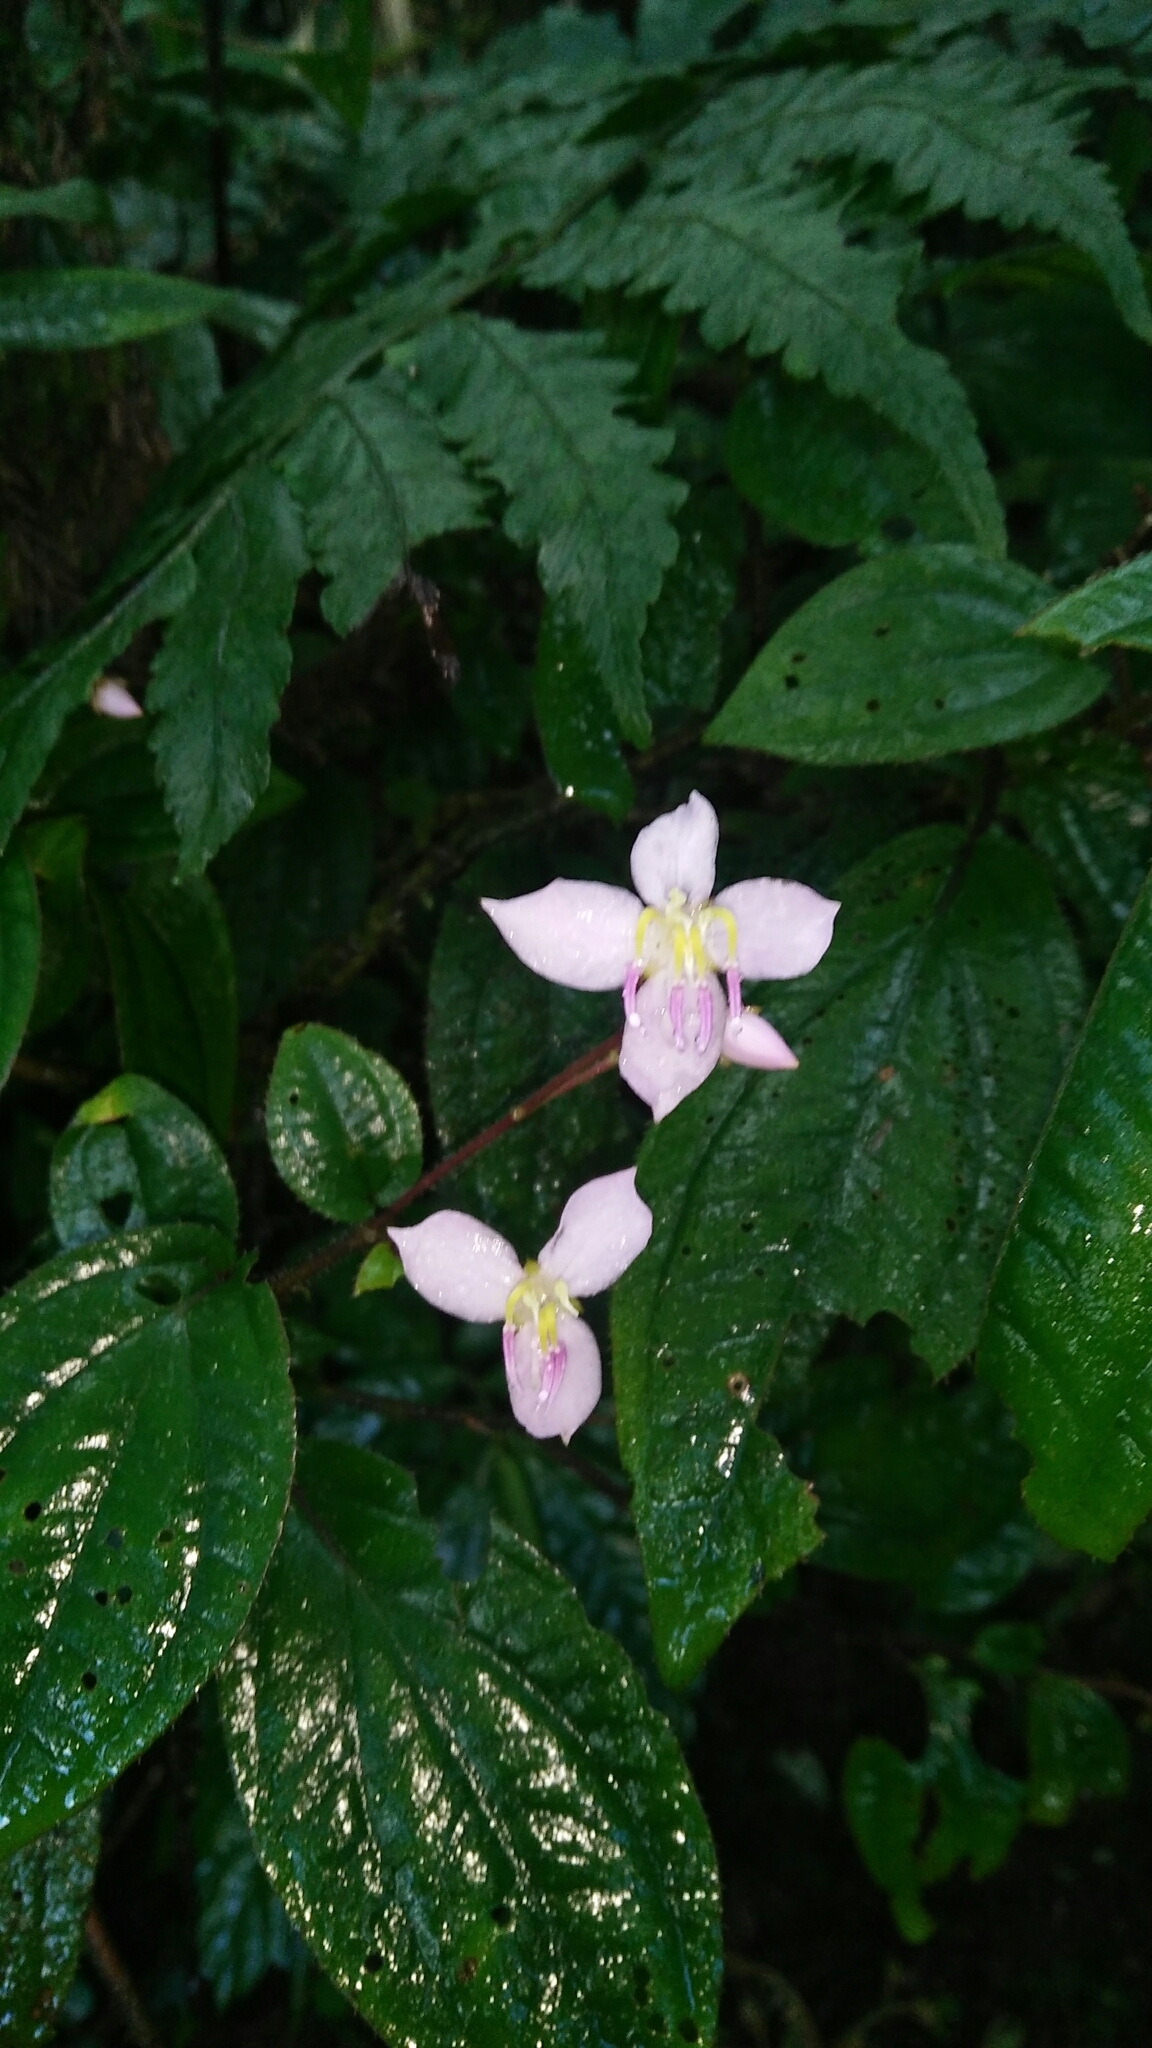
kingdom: Plantae
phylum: Tracheophyta
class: Magnoliopsida
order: Myrtales
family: Melastomataceae
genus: Bredia
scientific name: Bredia hirsuta
